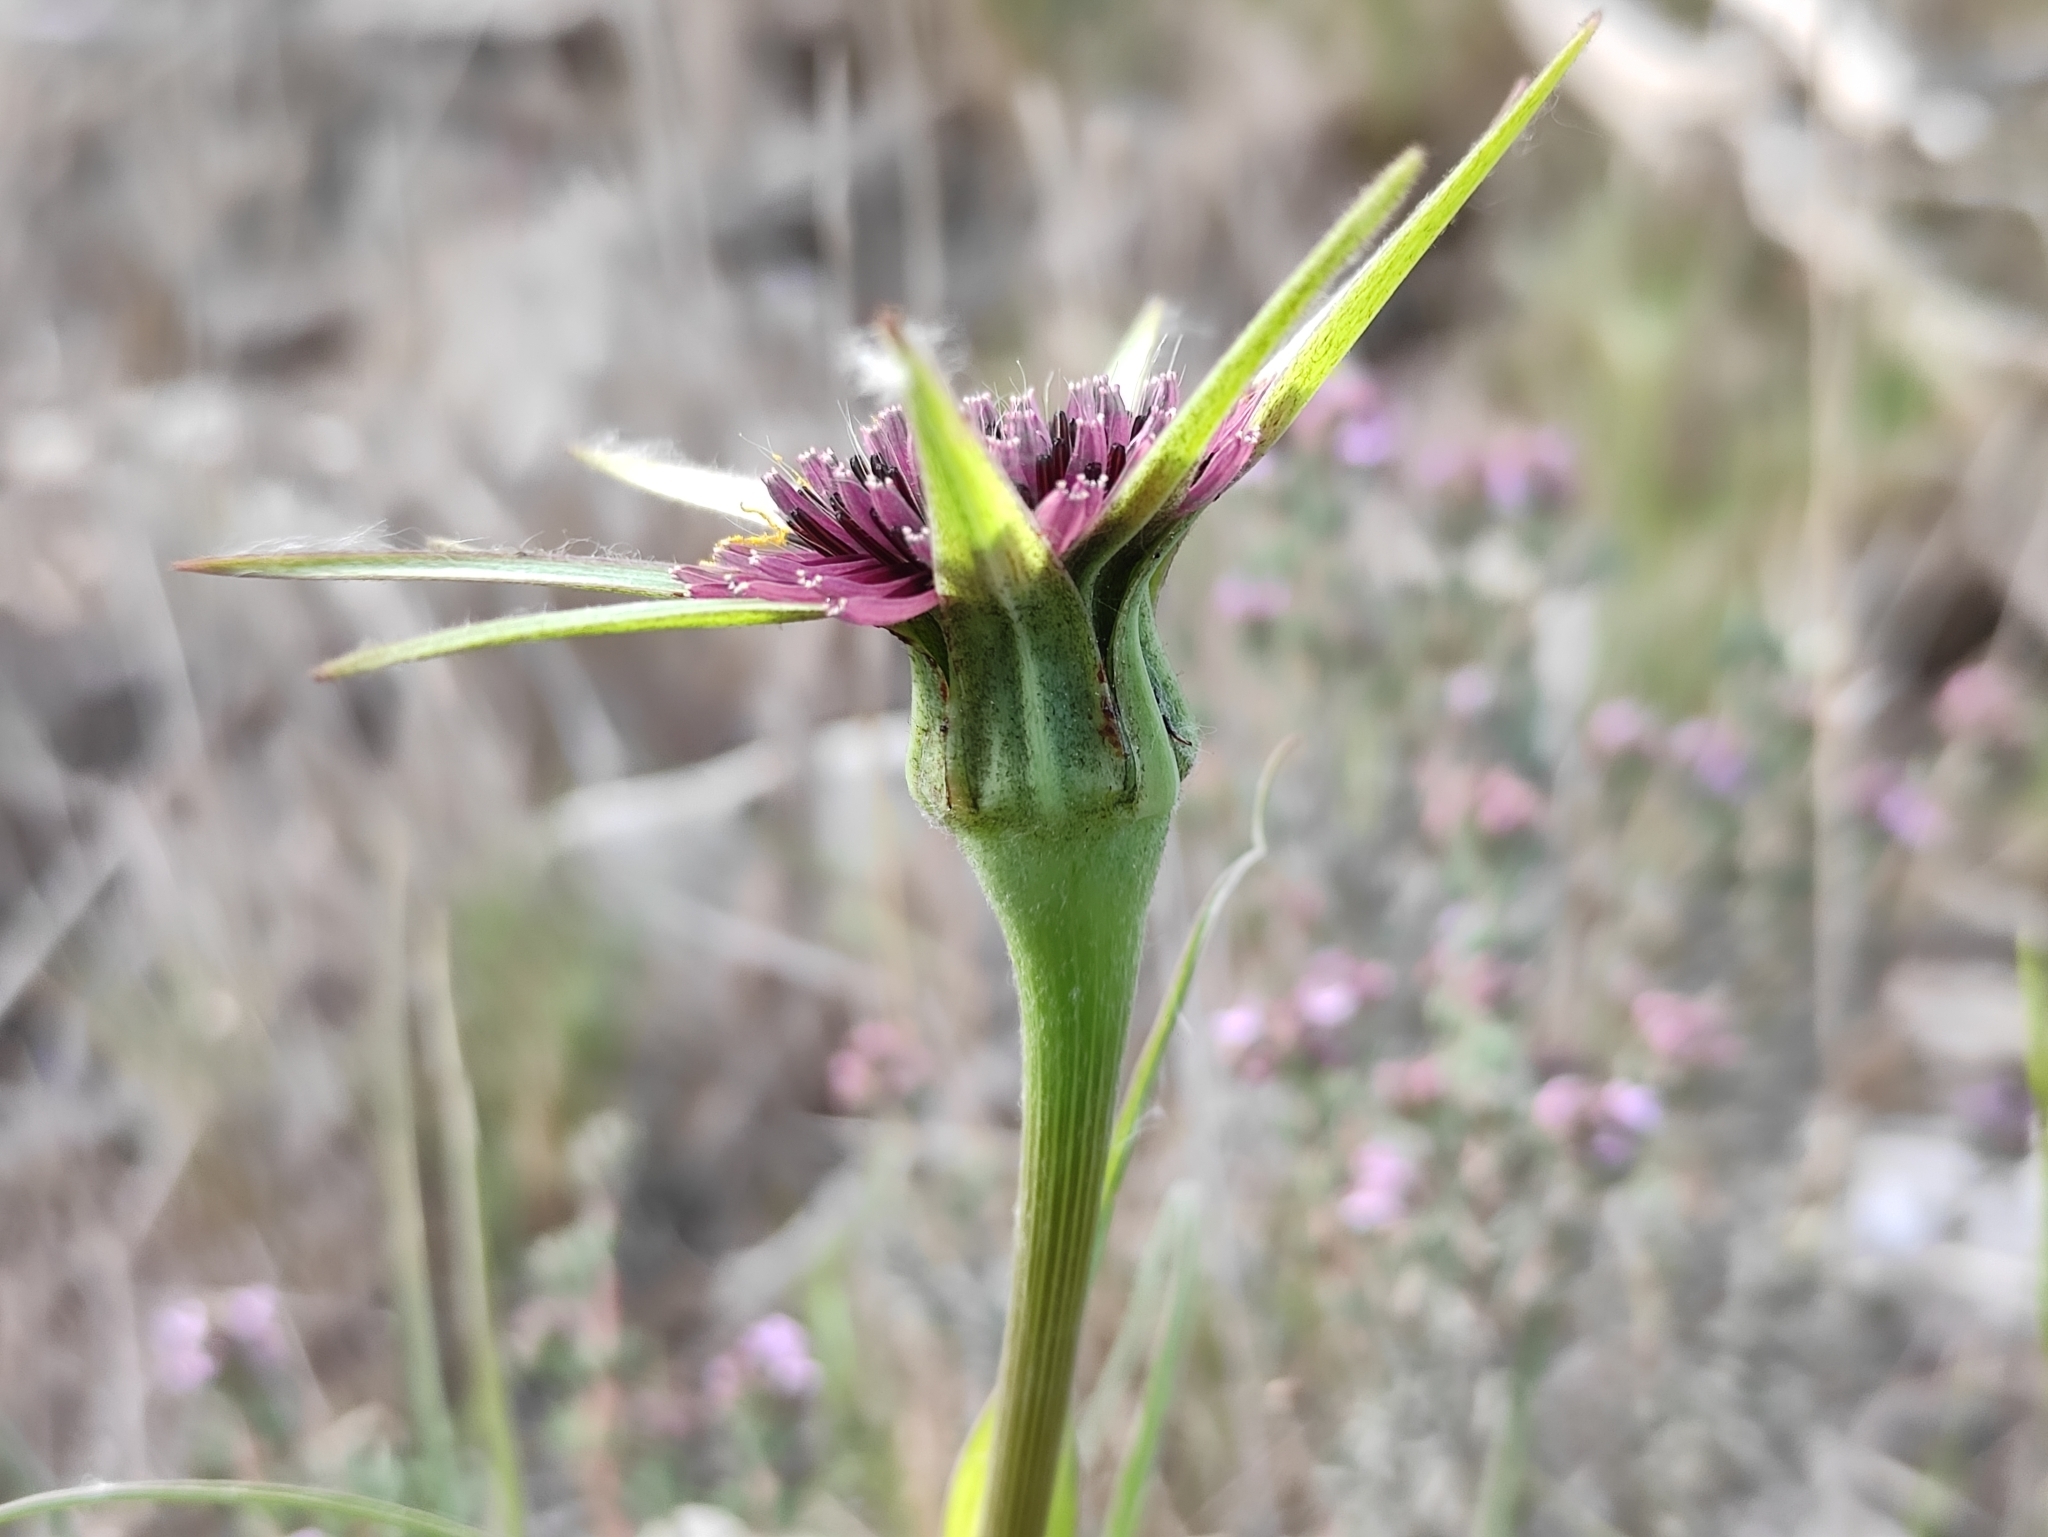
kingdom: Plantae
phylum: Tracheophyta
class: Magnoliopsida
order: Asterales
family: Asteraceae
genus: Tragopogon
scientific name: Tragopogon porrifolius
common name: Salsify
